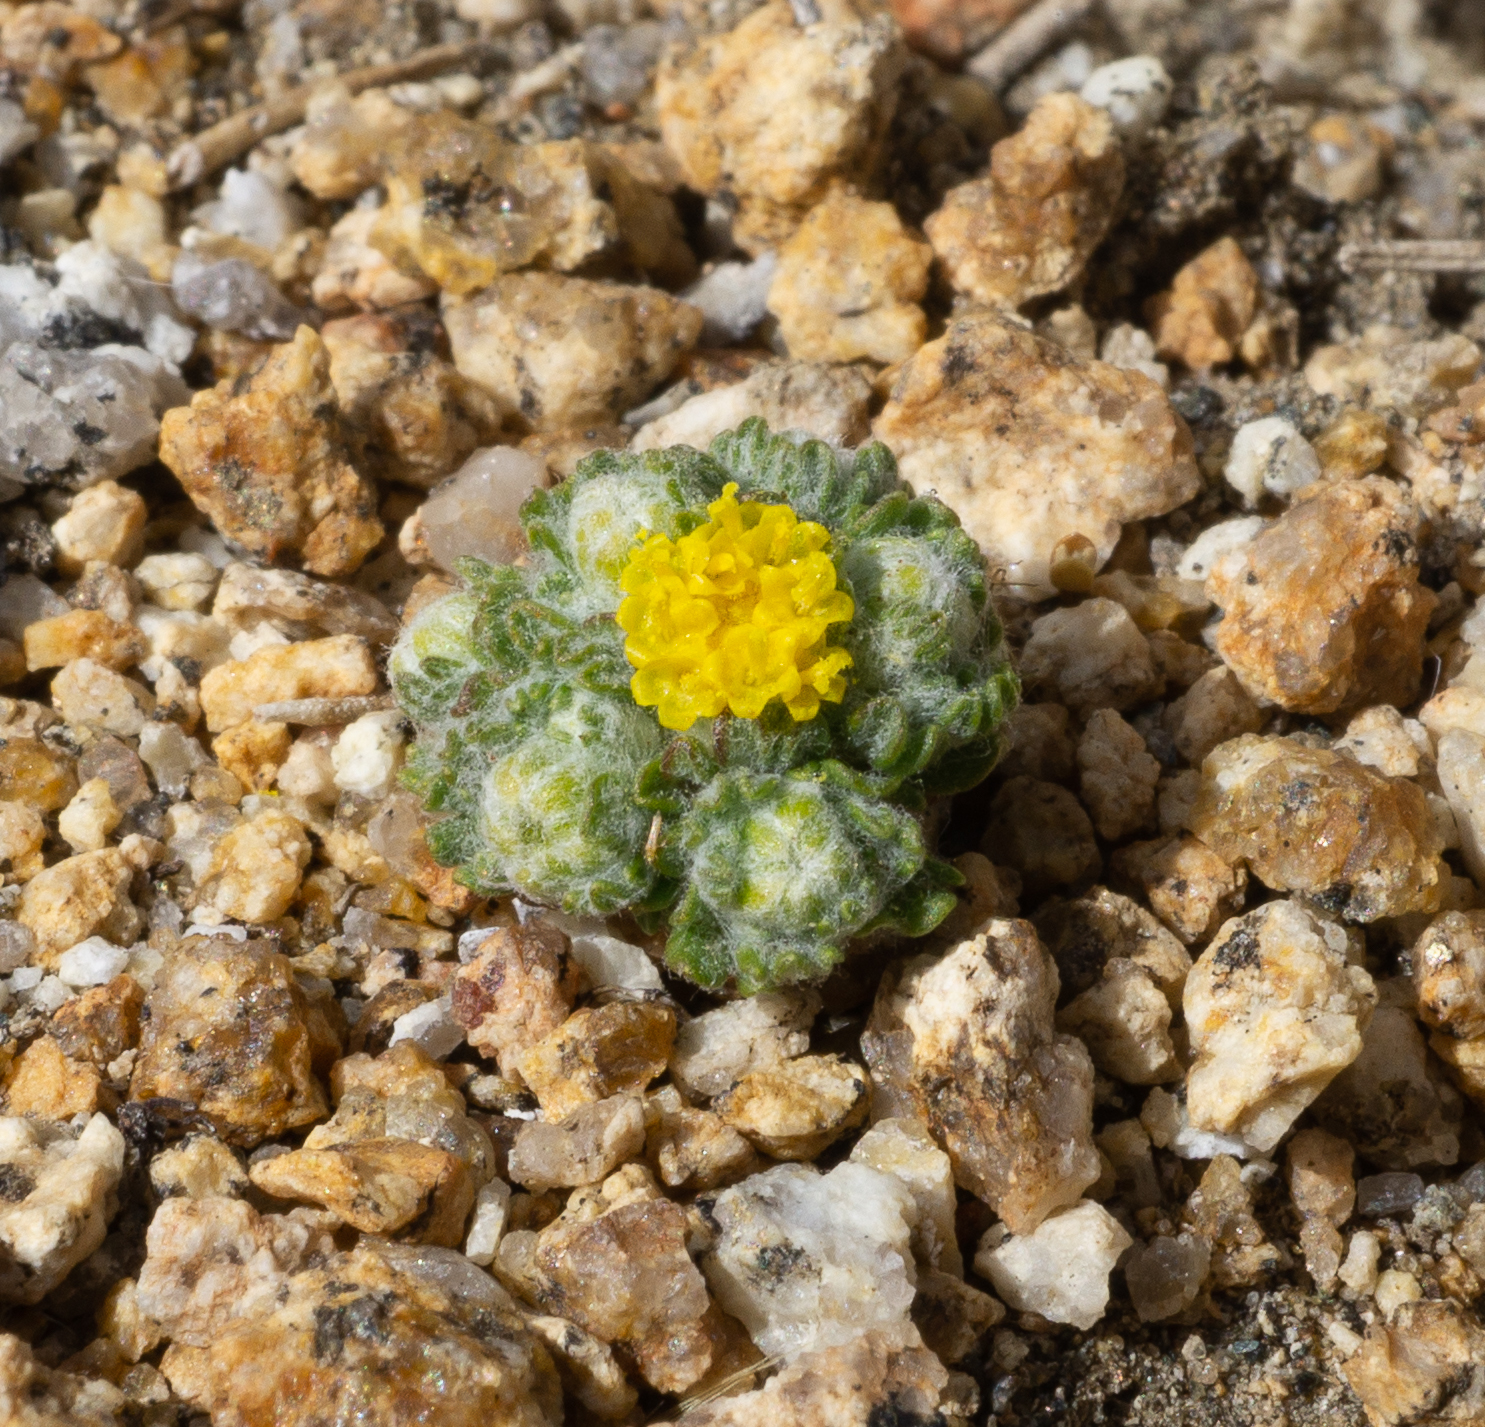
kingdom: Plantae
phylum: Tracheophyta
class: Magnoliopsida
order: Asterales
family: Asteraceae
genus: Eriophyllum
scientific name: Eriophyllum pringlei
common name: Pringle's woolly-sunflower
